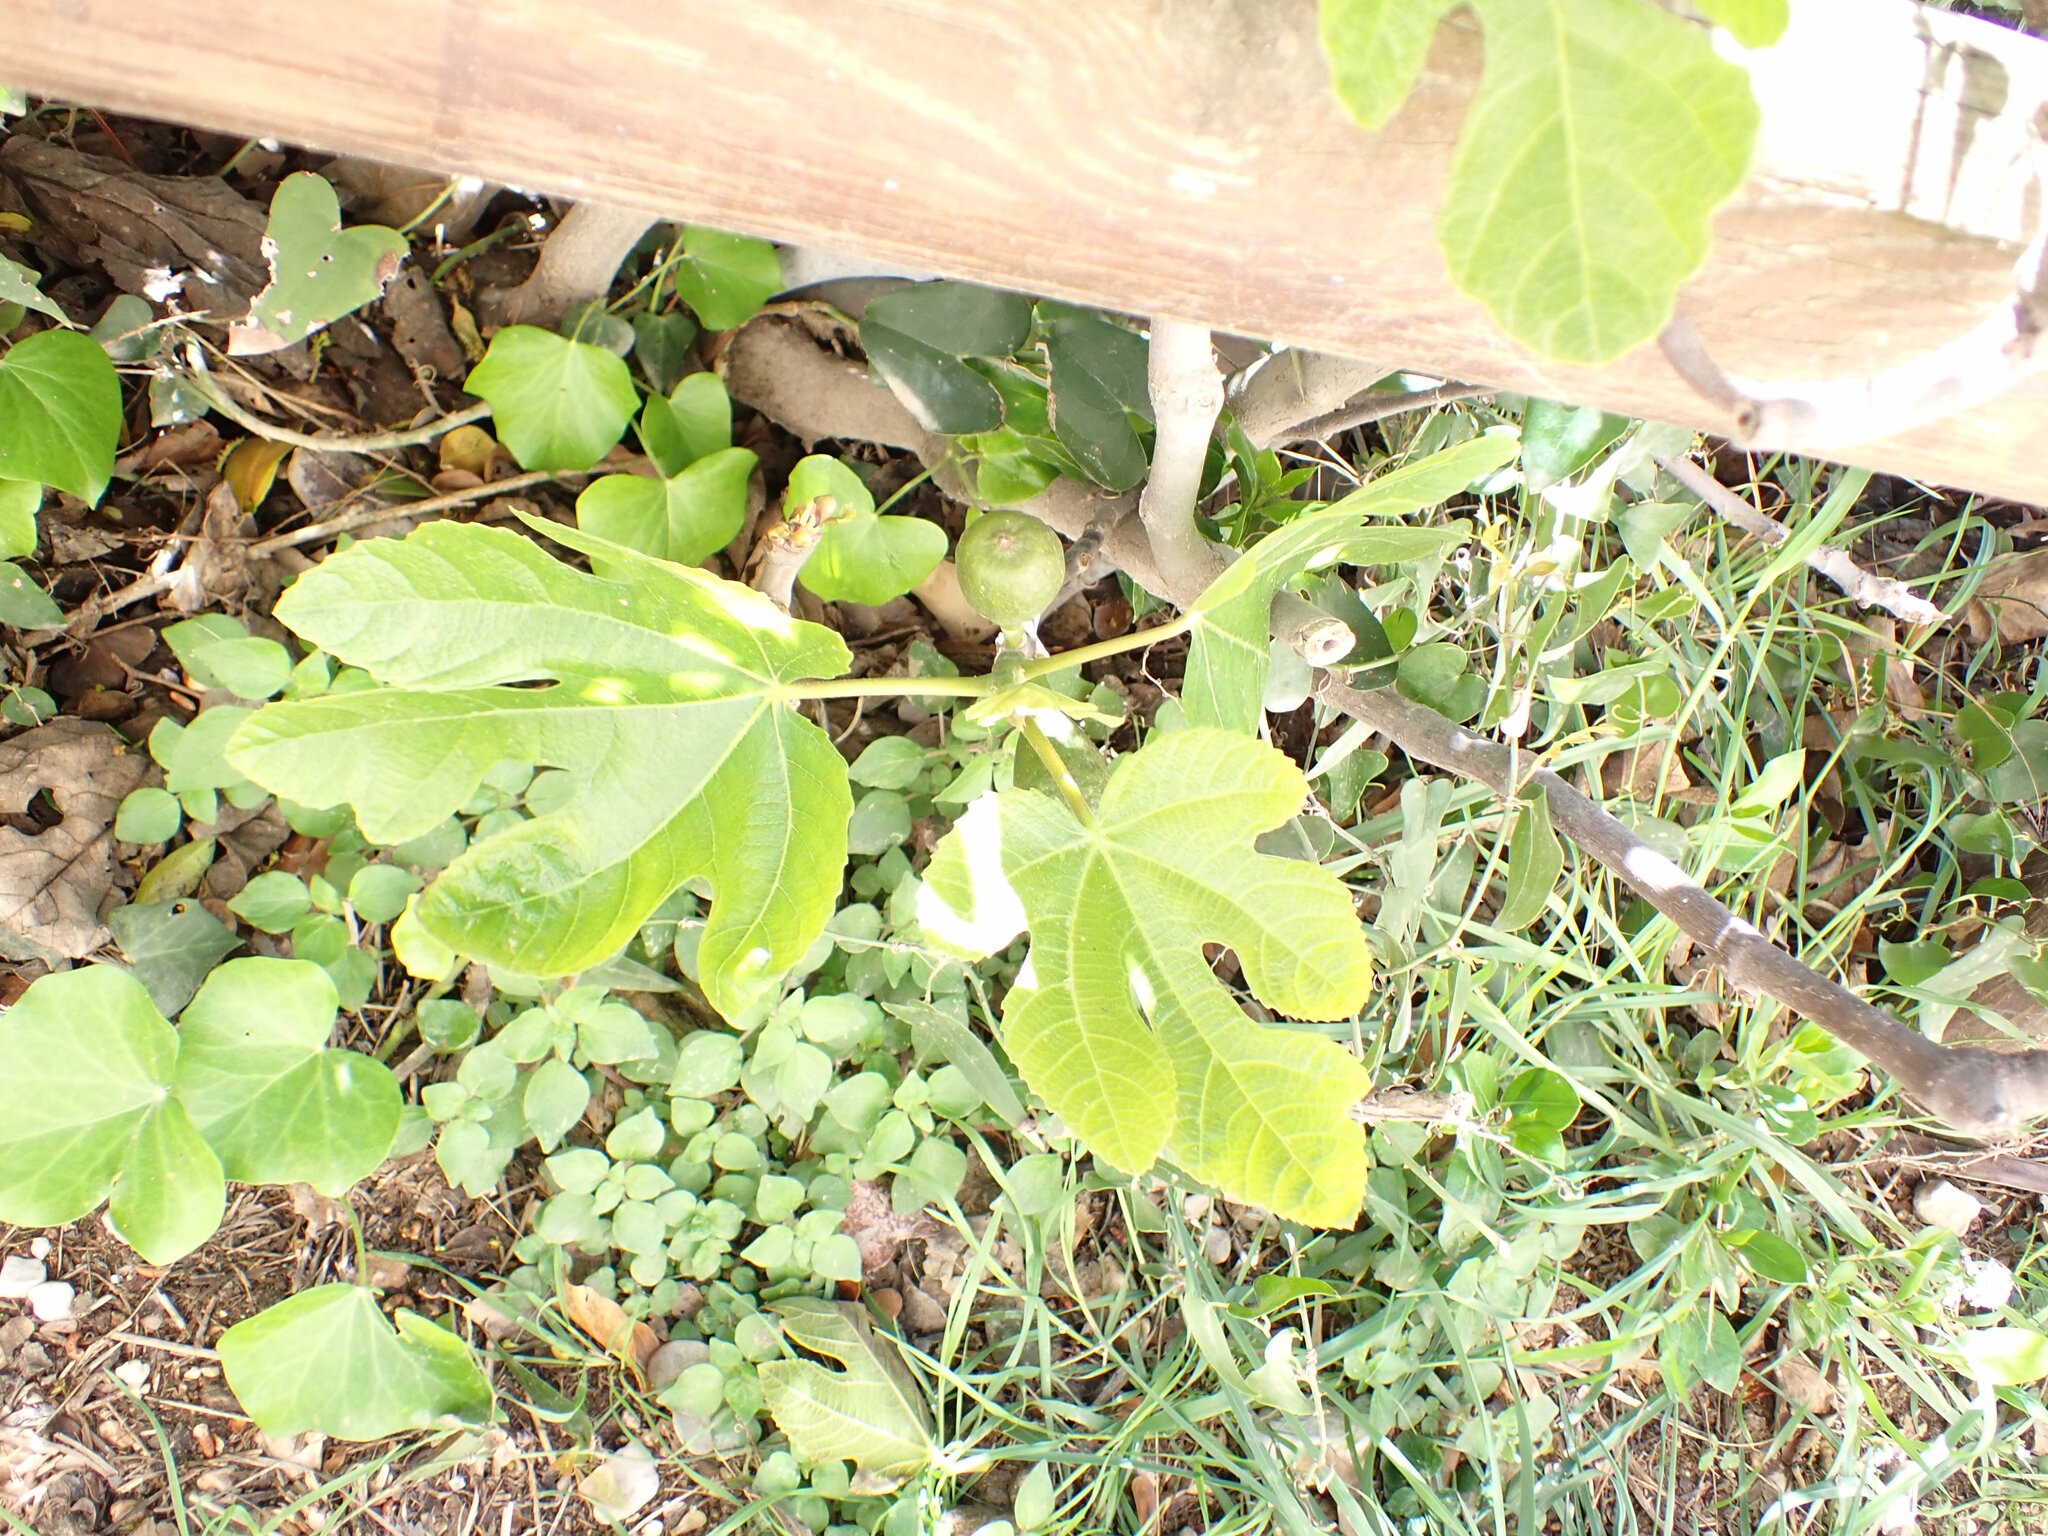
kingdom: Plantae
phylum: Tracheophyta
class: Magnoliopsida
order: Rosales
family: Moraceae
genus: Ficus
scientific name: Ficus carica
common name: Fig
